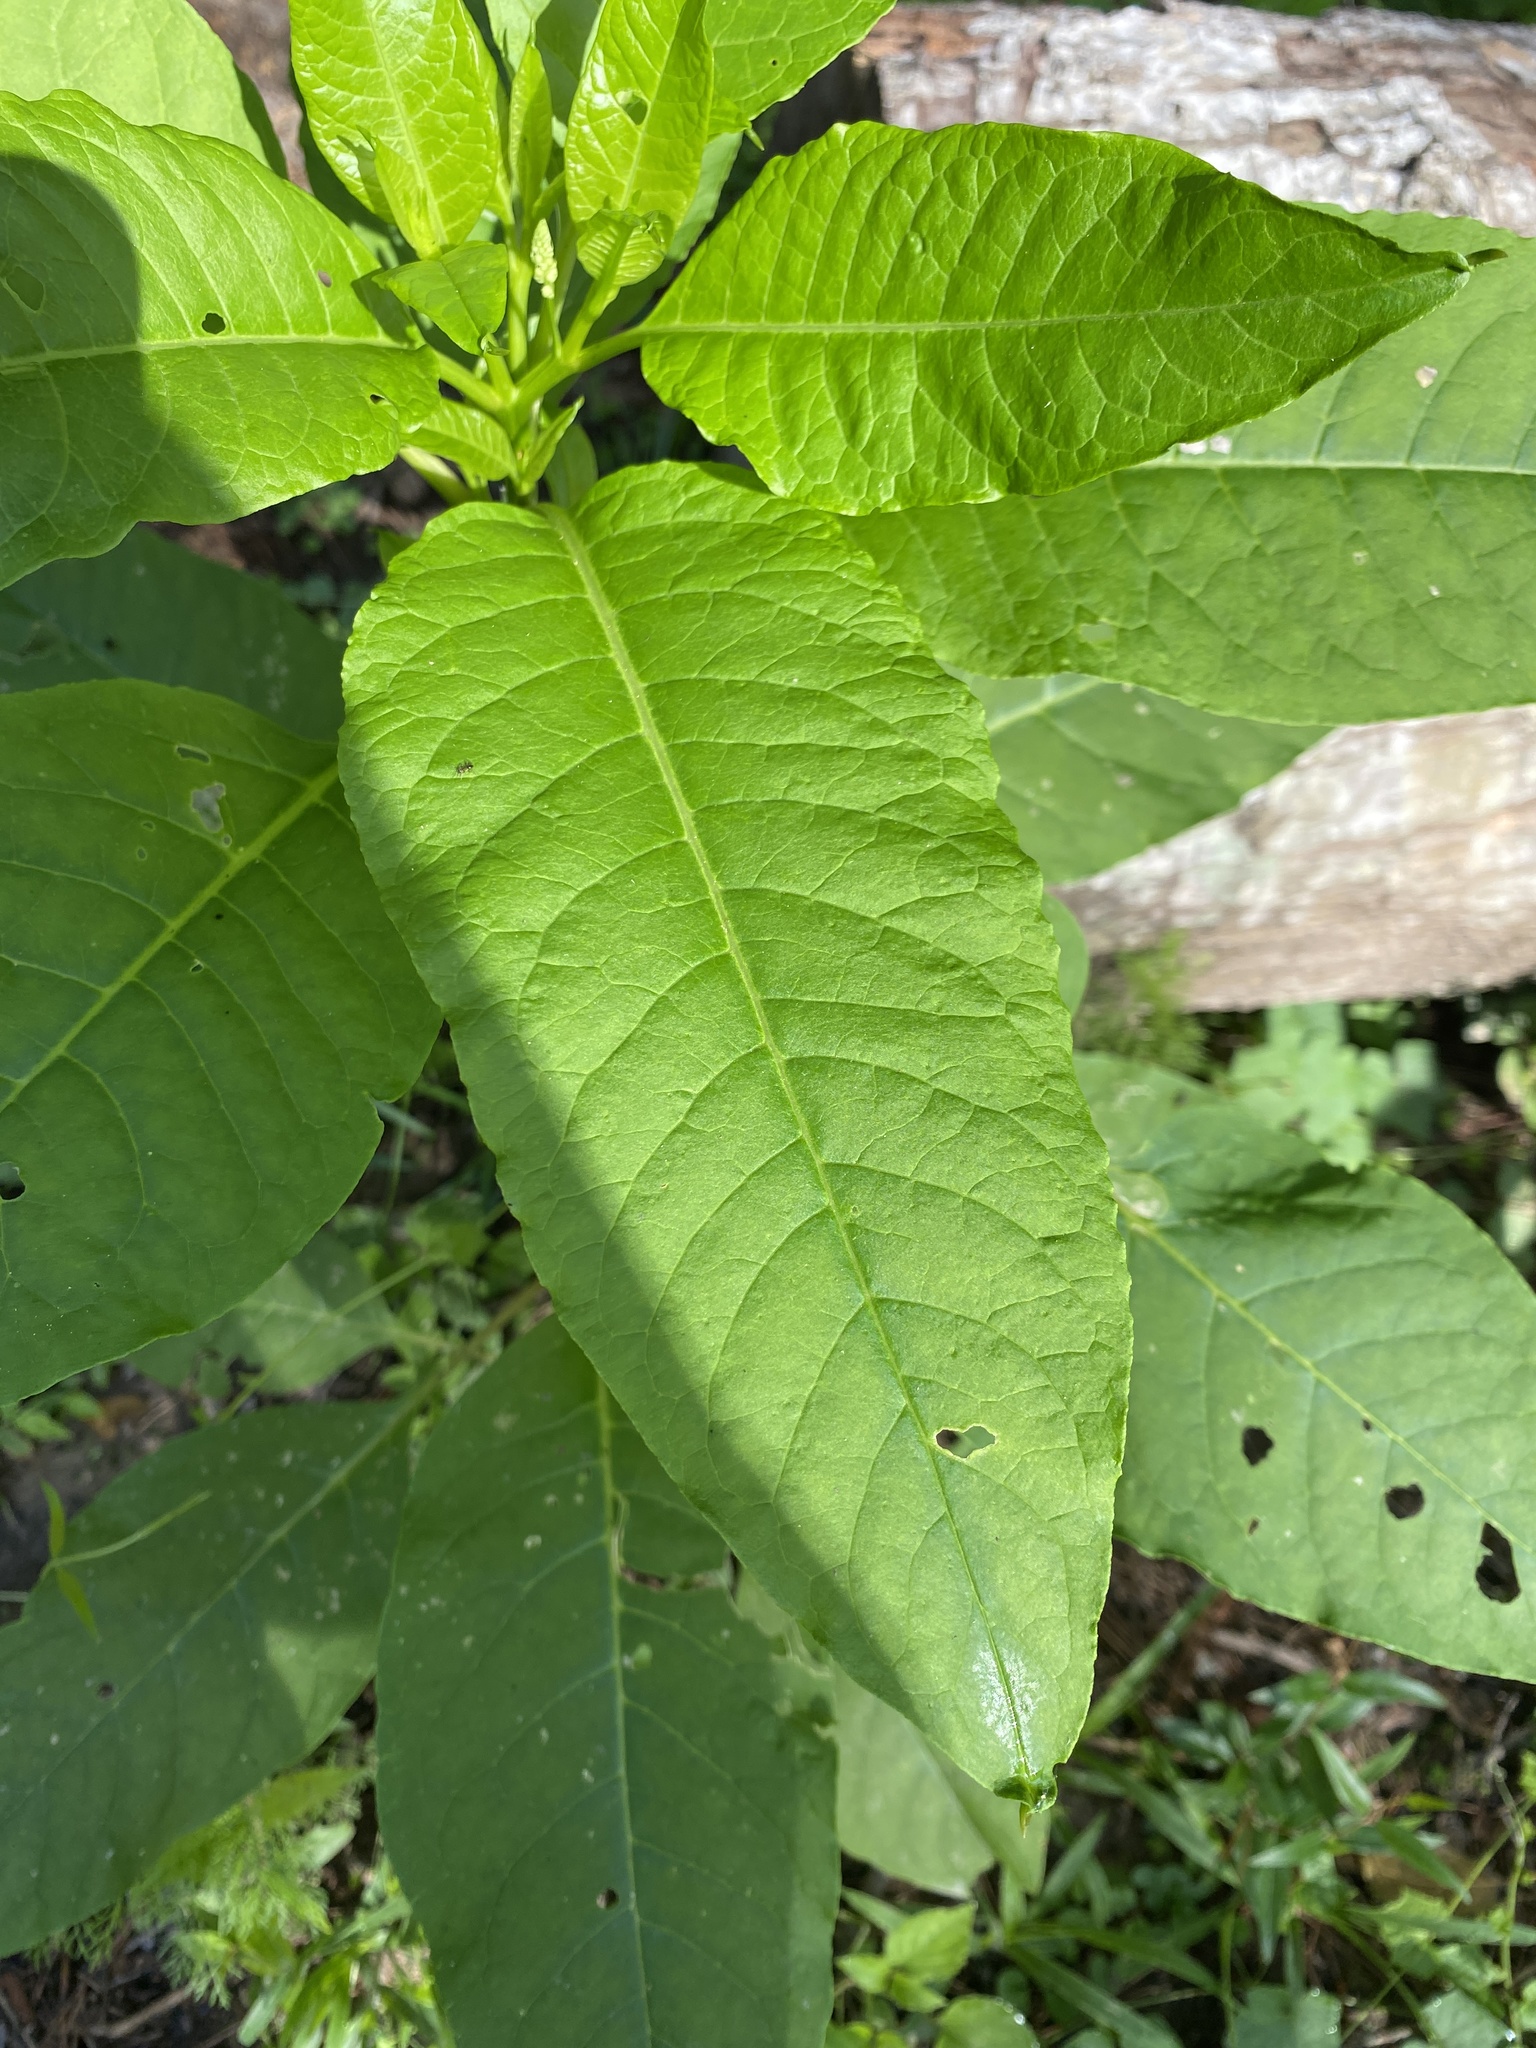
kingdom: Plantae
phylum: Tracheophyta
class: Magnoliopsida
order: Caryophyllales
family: Phytolaccaceae
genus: Phytolacca
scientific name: Phytolacca americana
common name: American pokeweed
